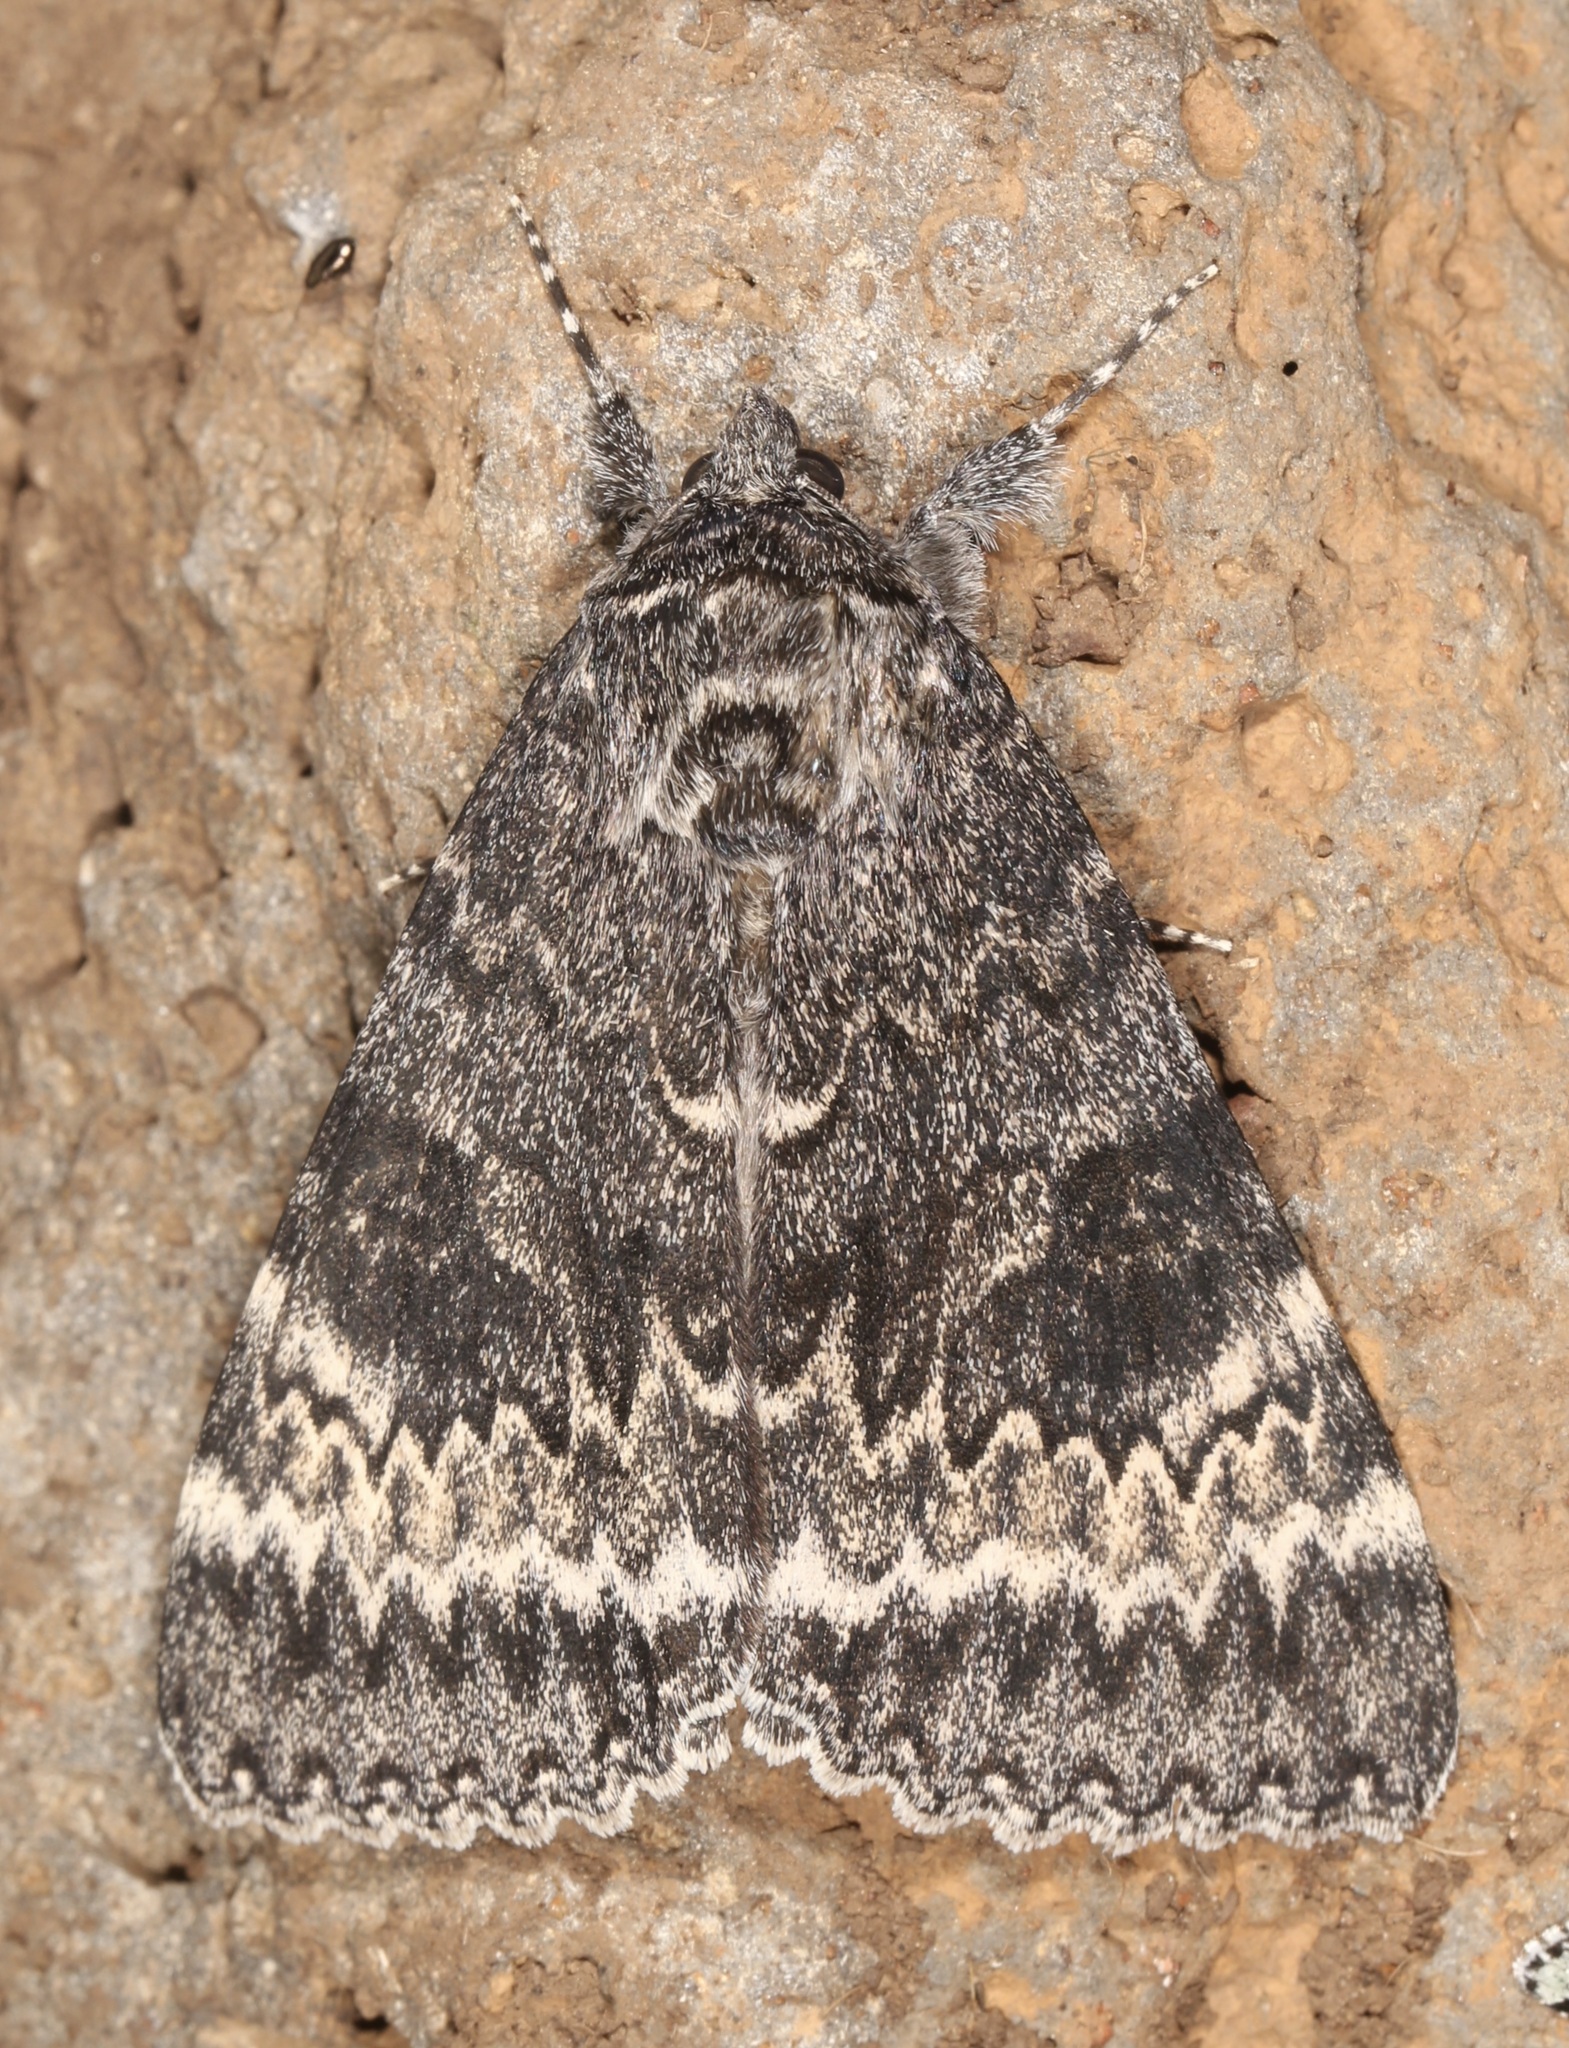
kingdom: Animalia
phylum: Arthropoda
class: Insecta
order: Lepidoptera
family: Erebidae
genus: Catocala
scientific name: Catocala grotiana
